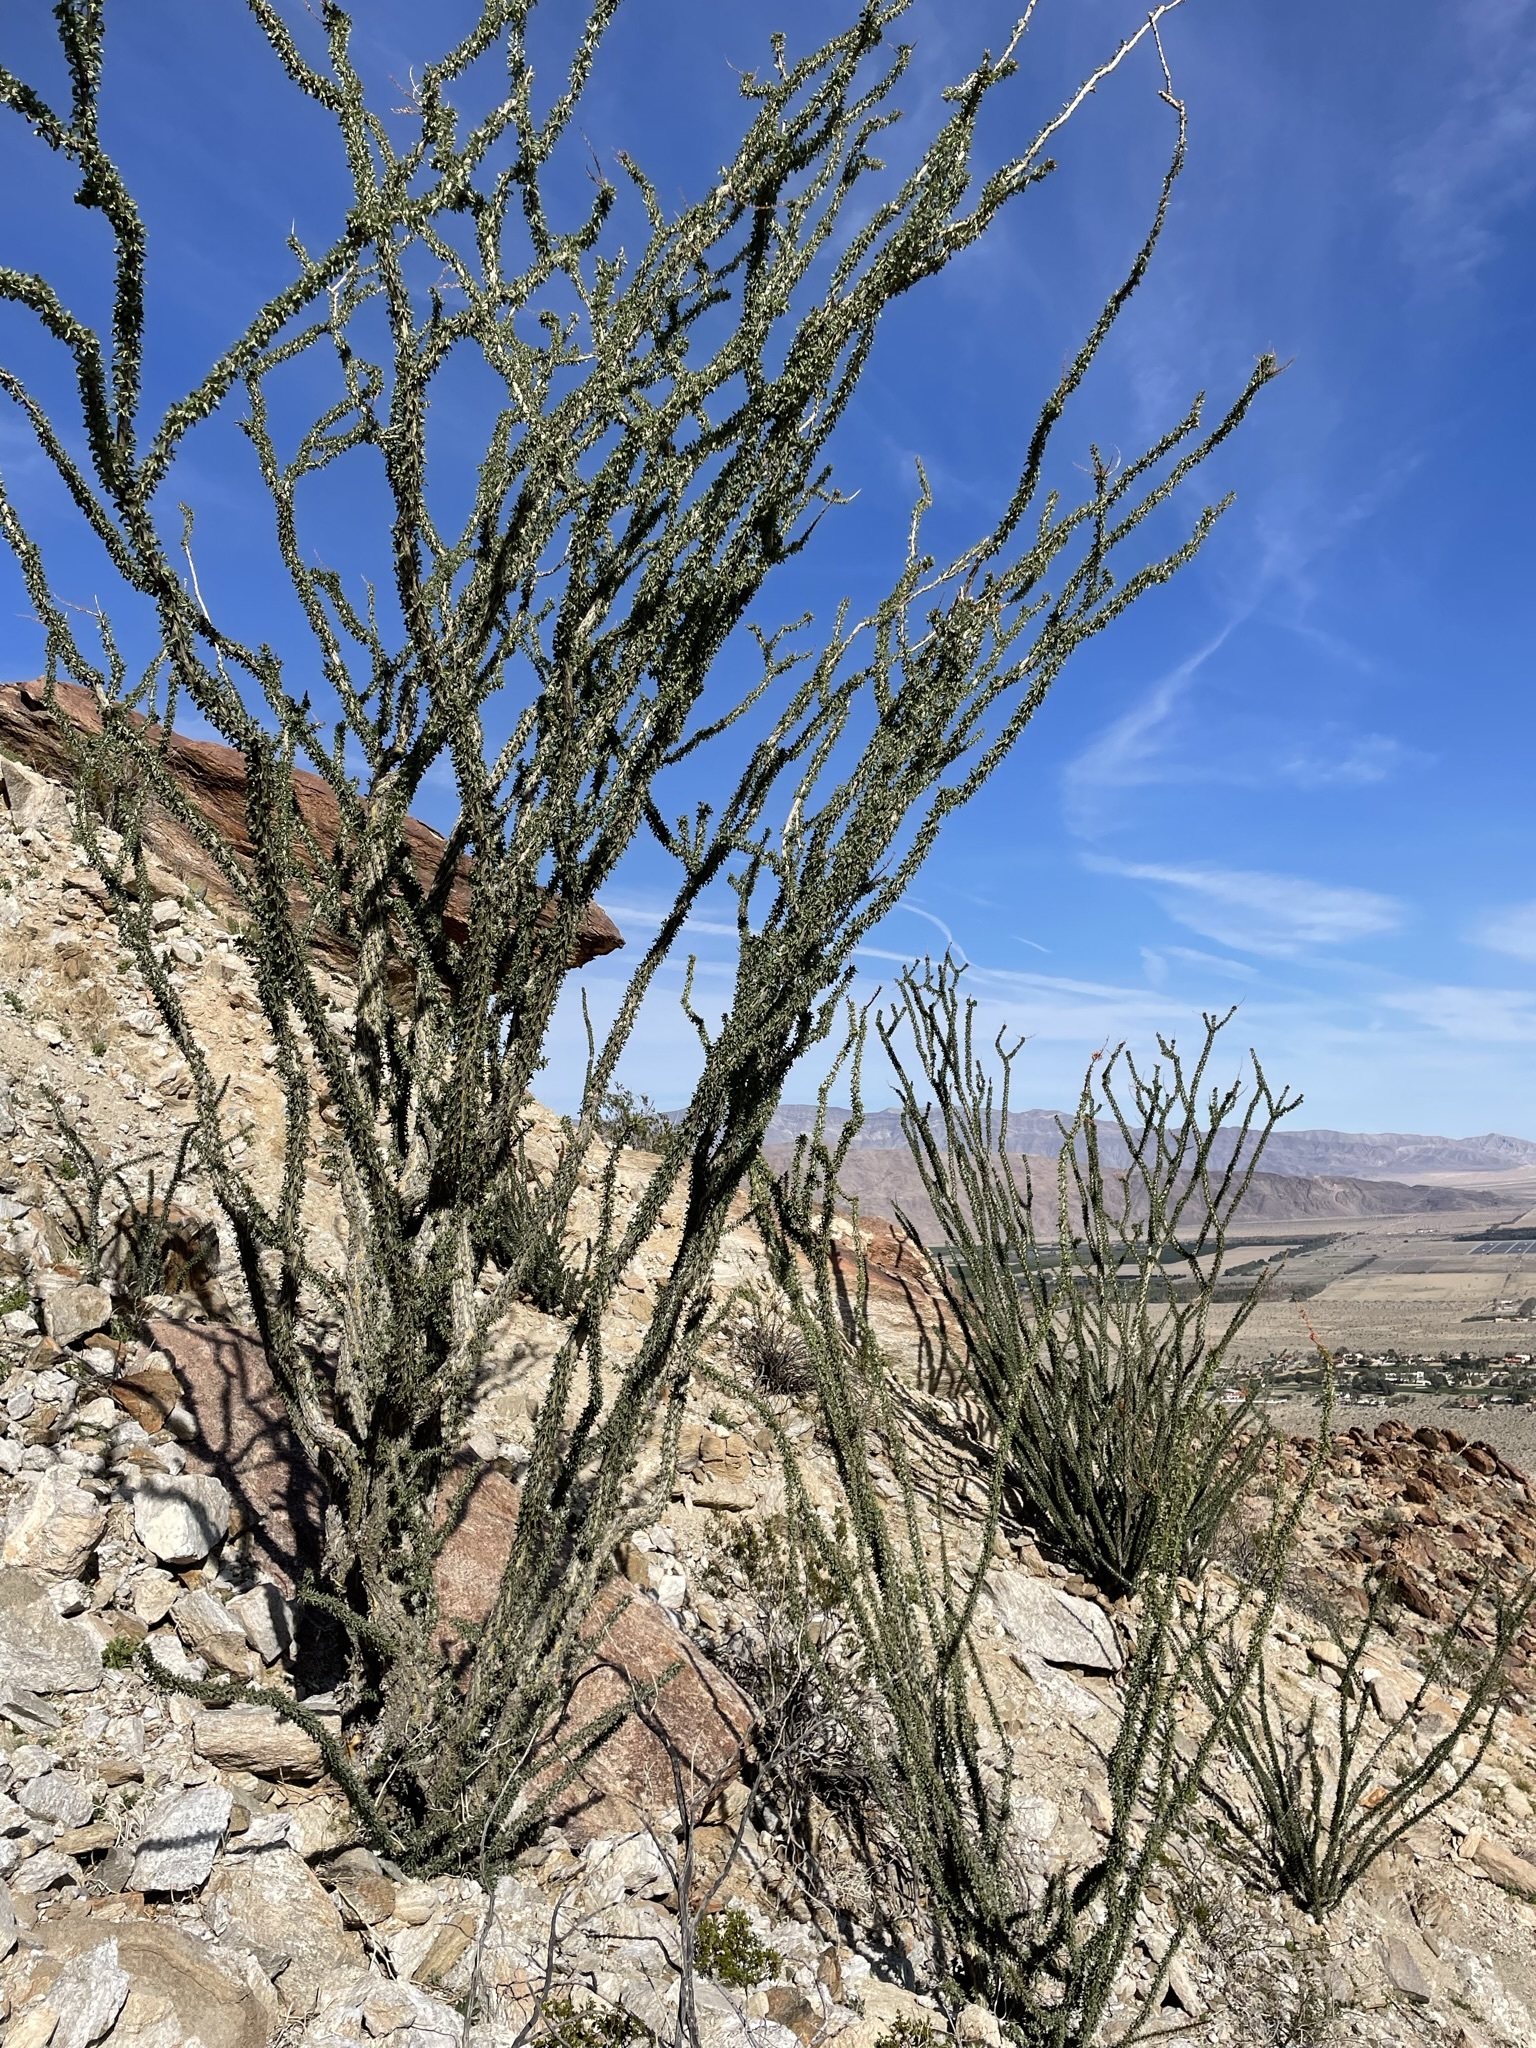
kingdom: Plantae
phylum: Tracheophyta
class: Magnoliopsida
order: Ericales
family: Fouquieriaceae
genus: Fouquieria
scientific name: Fouquieria splendens
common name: Vine-cactus
